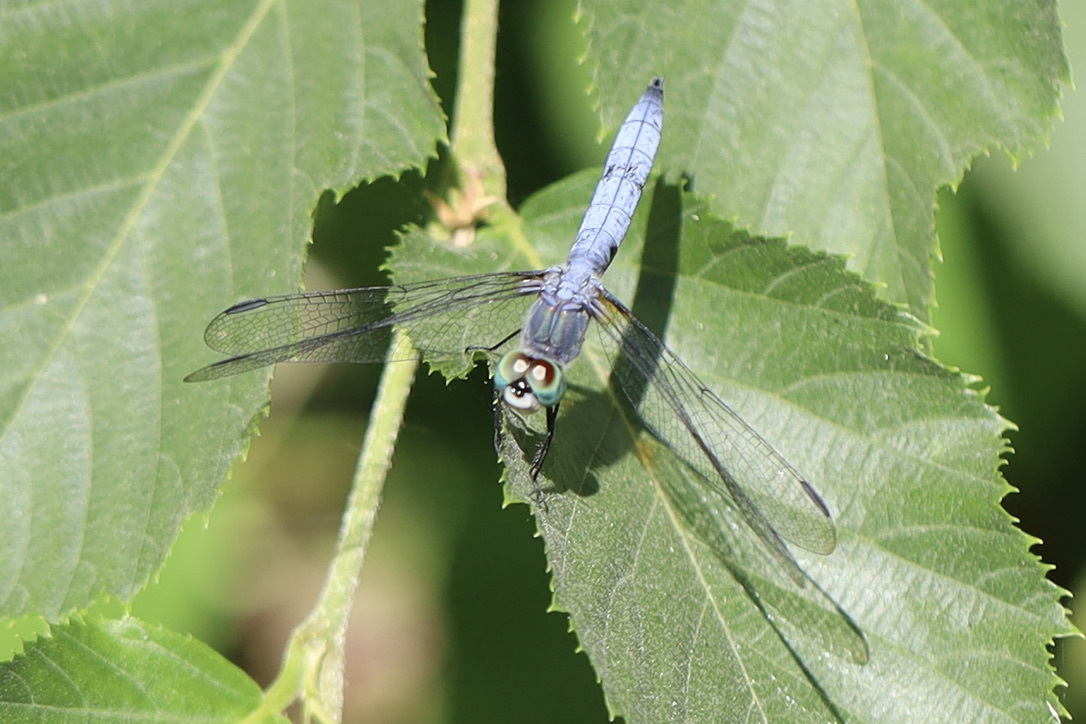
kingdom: Animalia
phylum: Arthropoda
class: Insecta
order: Odonata
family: Libellulidae
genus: Pachydiplax
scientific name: Pachydiplax longipennis
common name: Blue dasher
